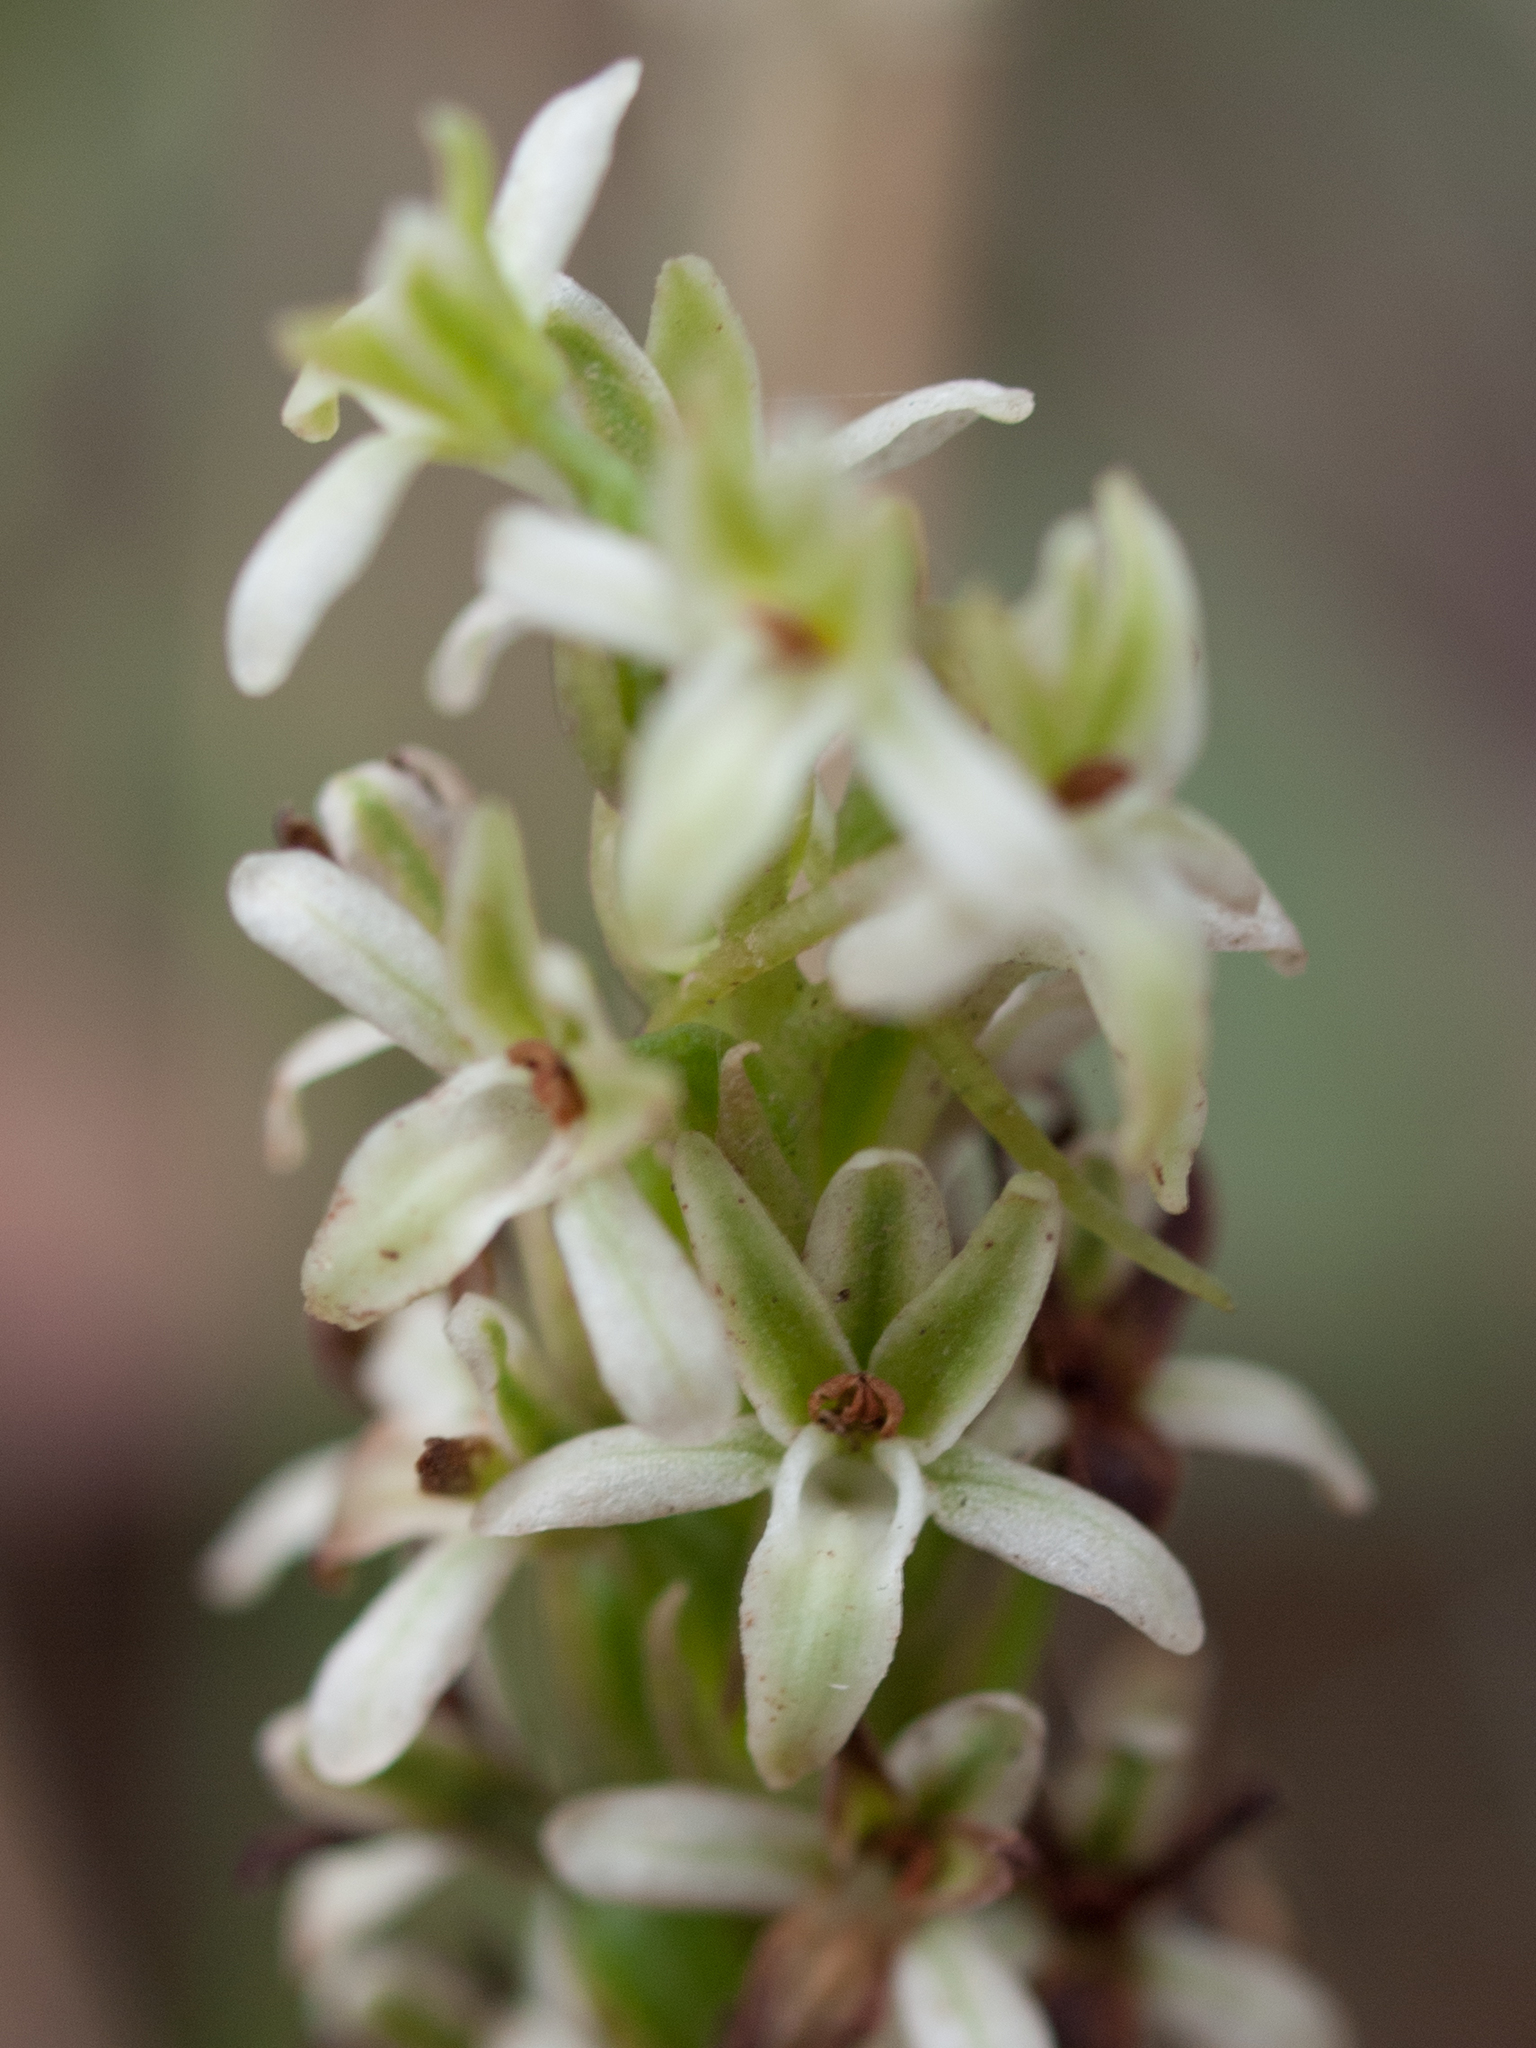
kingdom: Plantae
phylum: Tracheophyta
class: Liliopsida
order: Asparagales
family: Orchidaceae
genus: Platanthera
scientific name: Platanthera elegans
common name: Coast piperia
